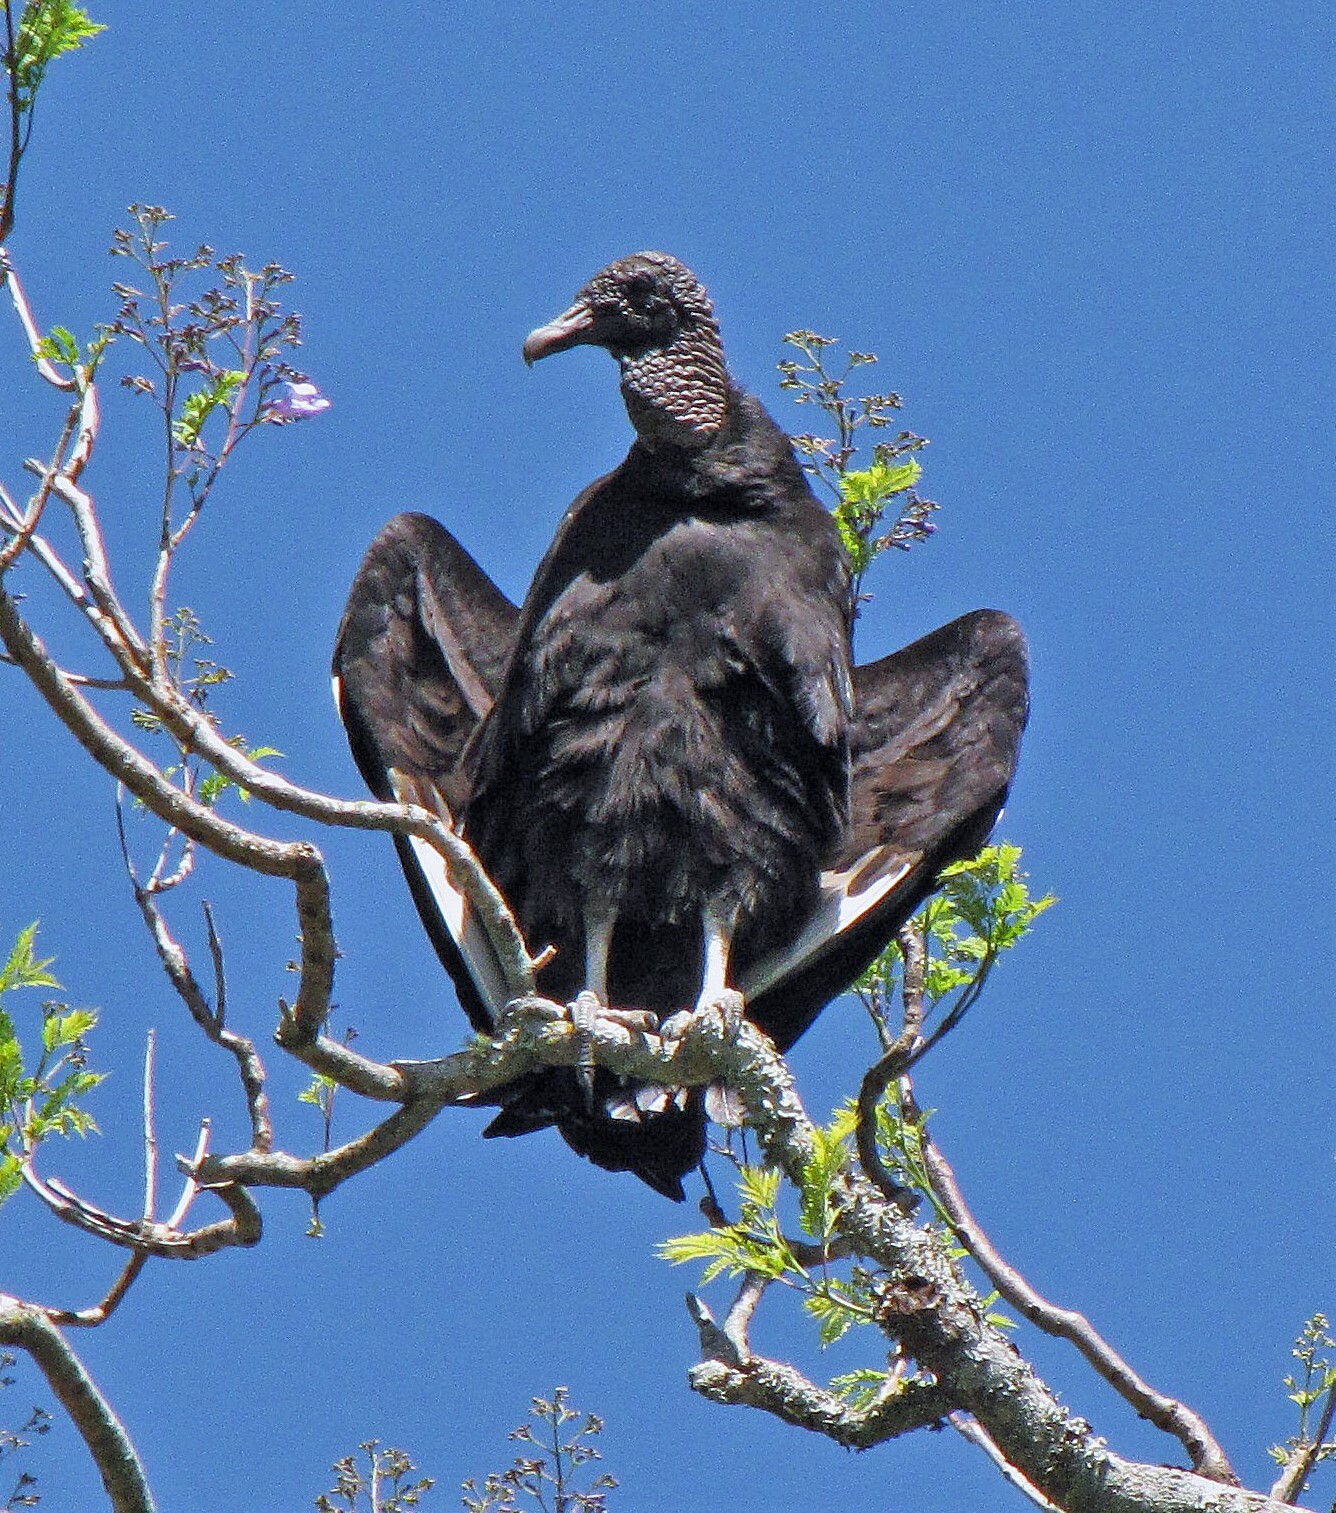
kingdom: Animalia
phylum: Chordata
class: Aves
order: Accipitriformes
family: Cathartidae
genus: Coragyps
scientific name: Coragyps atratus
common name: Black vulture
